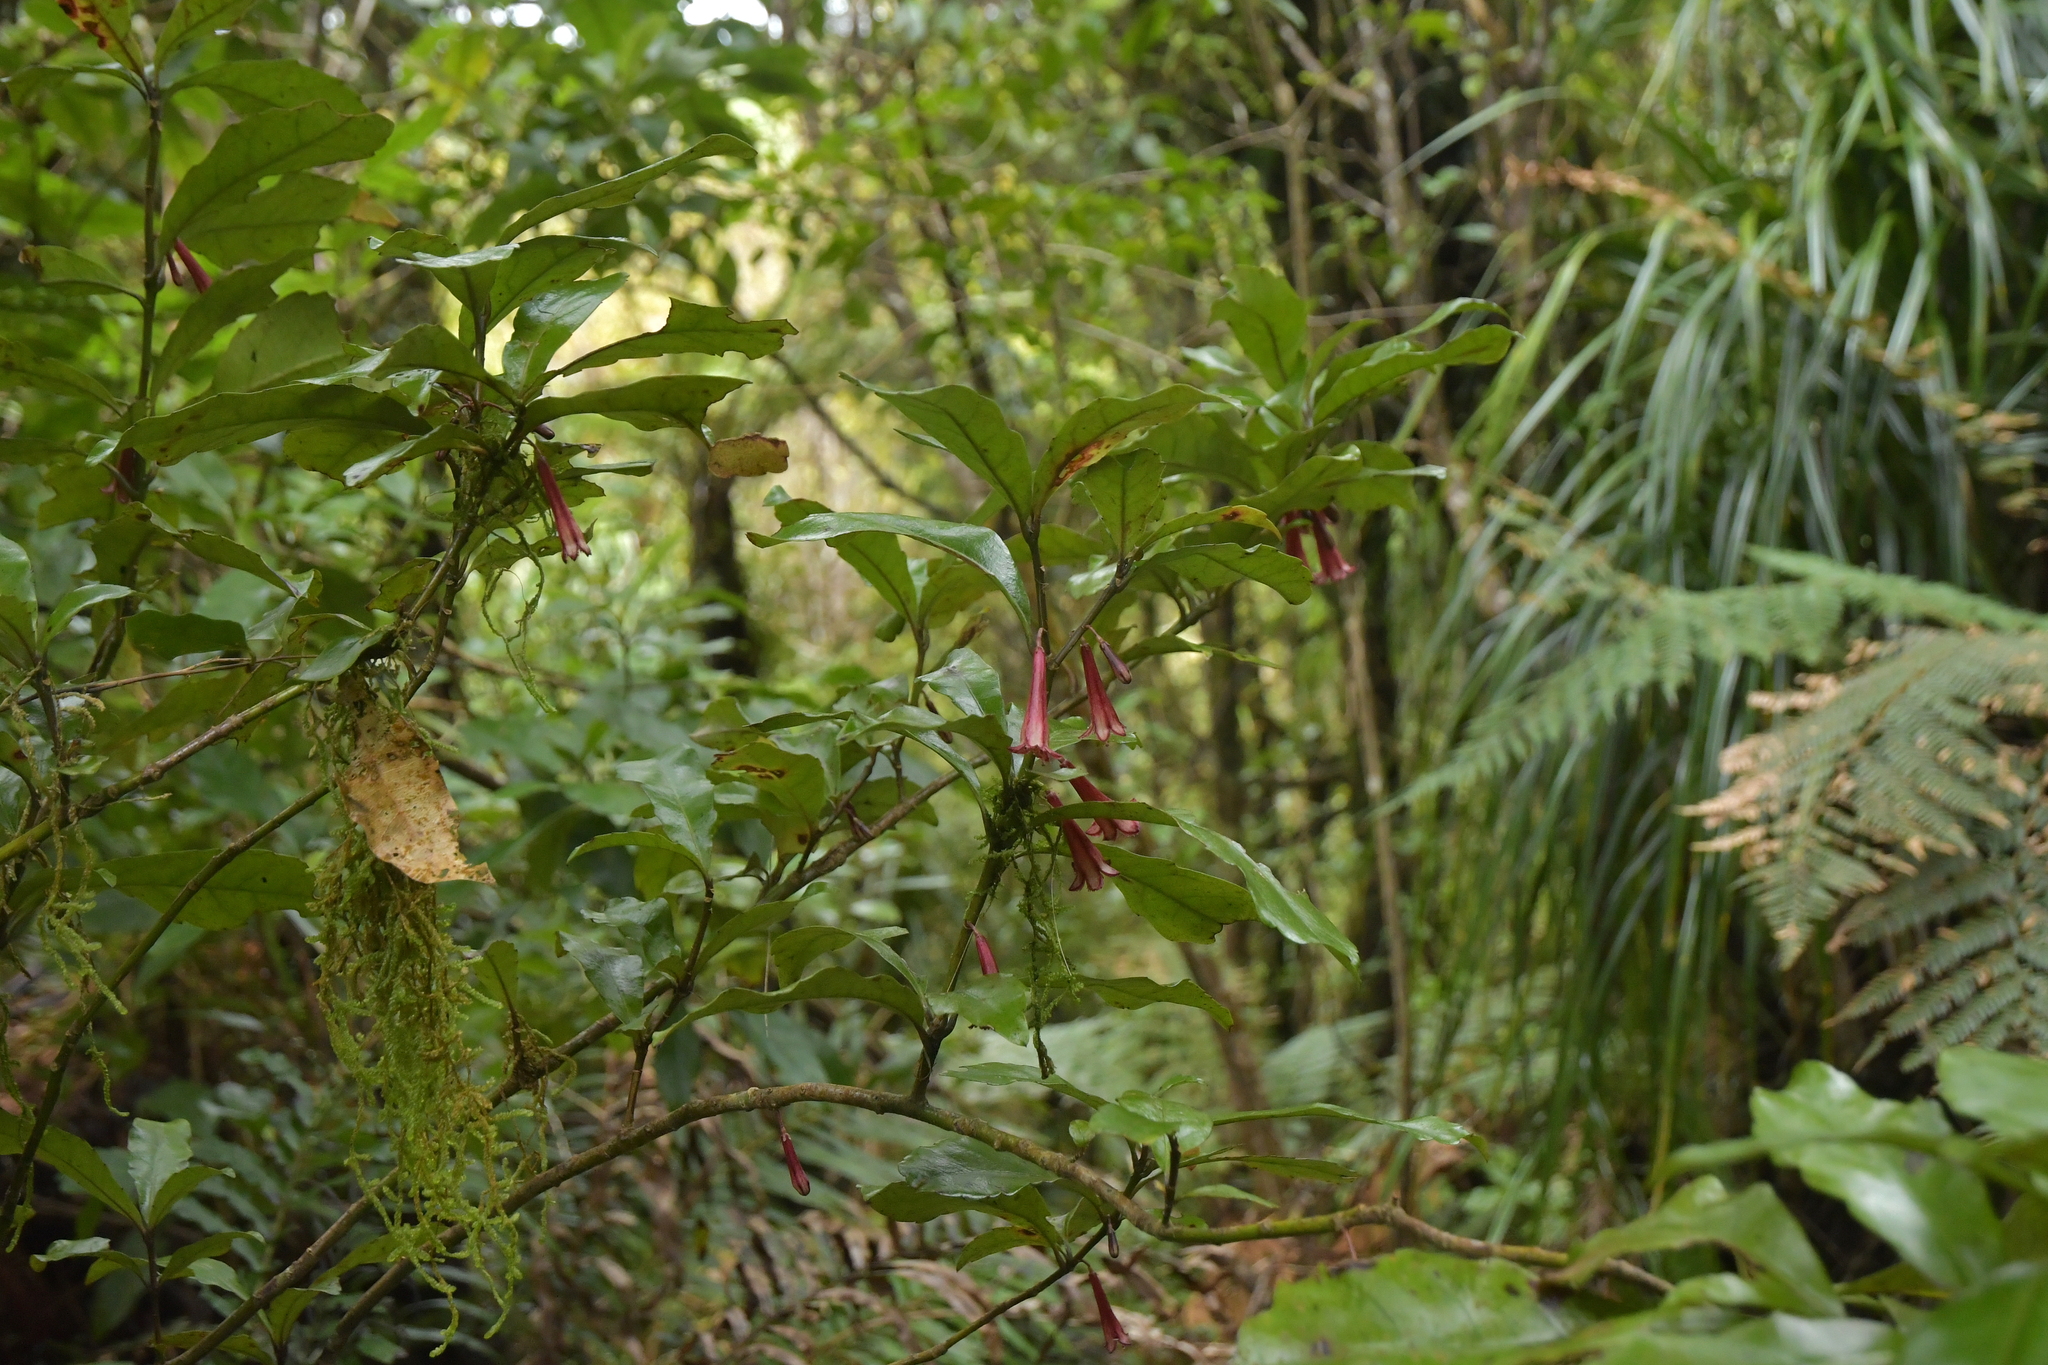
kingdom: Plantae
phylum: Tracheophyta
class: Magnoliopsida
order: Asterales
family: Alseuosmiaceae
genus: Alseuosmia
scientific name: Alseuosmia macrophylla
